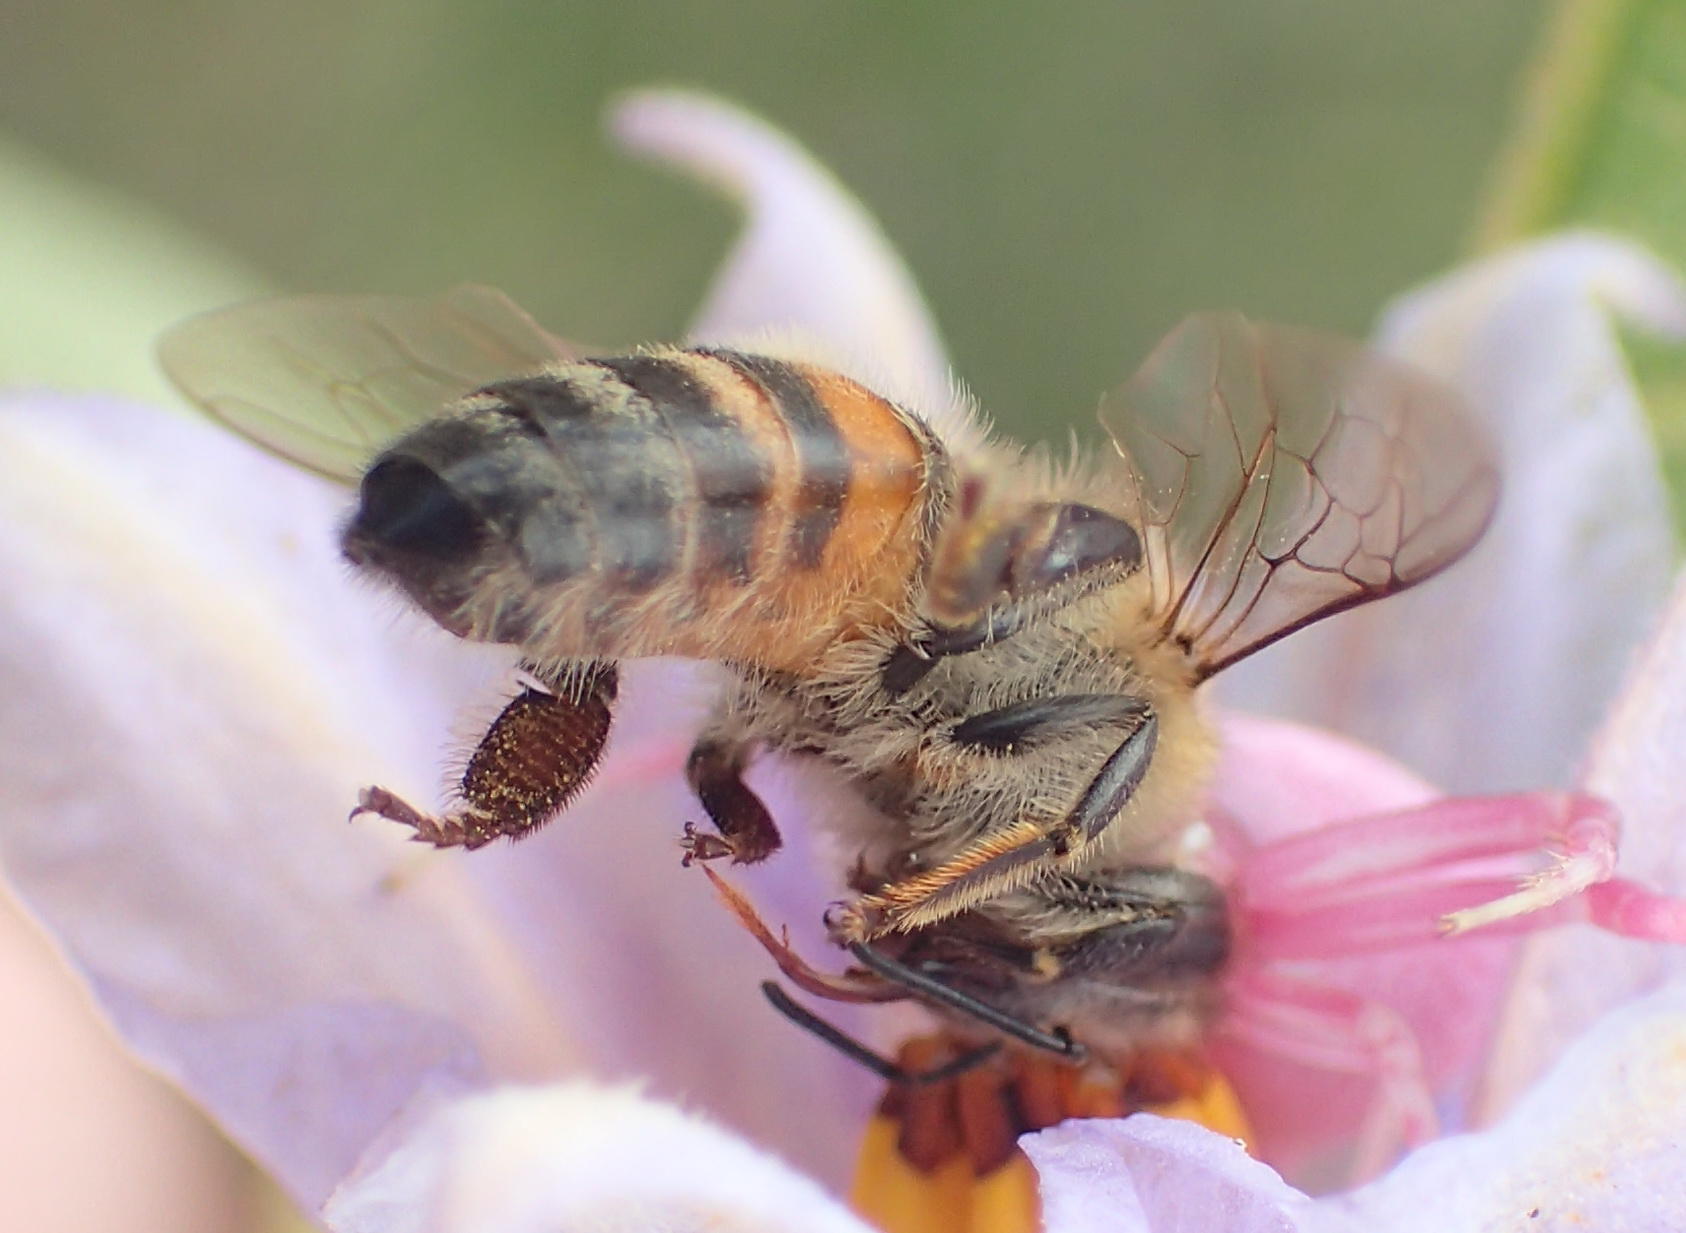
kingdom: Animalia
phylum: Arthropoda
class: Insecta
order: Hymenoptera
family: Apidae
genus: Apis
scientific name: Apis mellifera
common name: Honey bee
